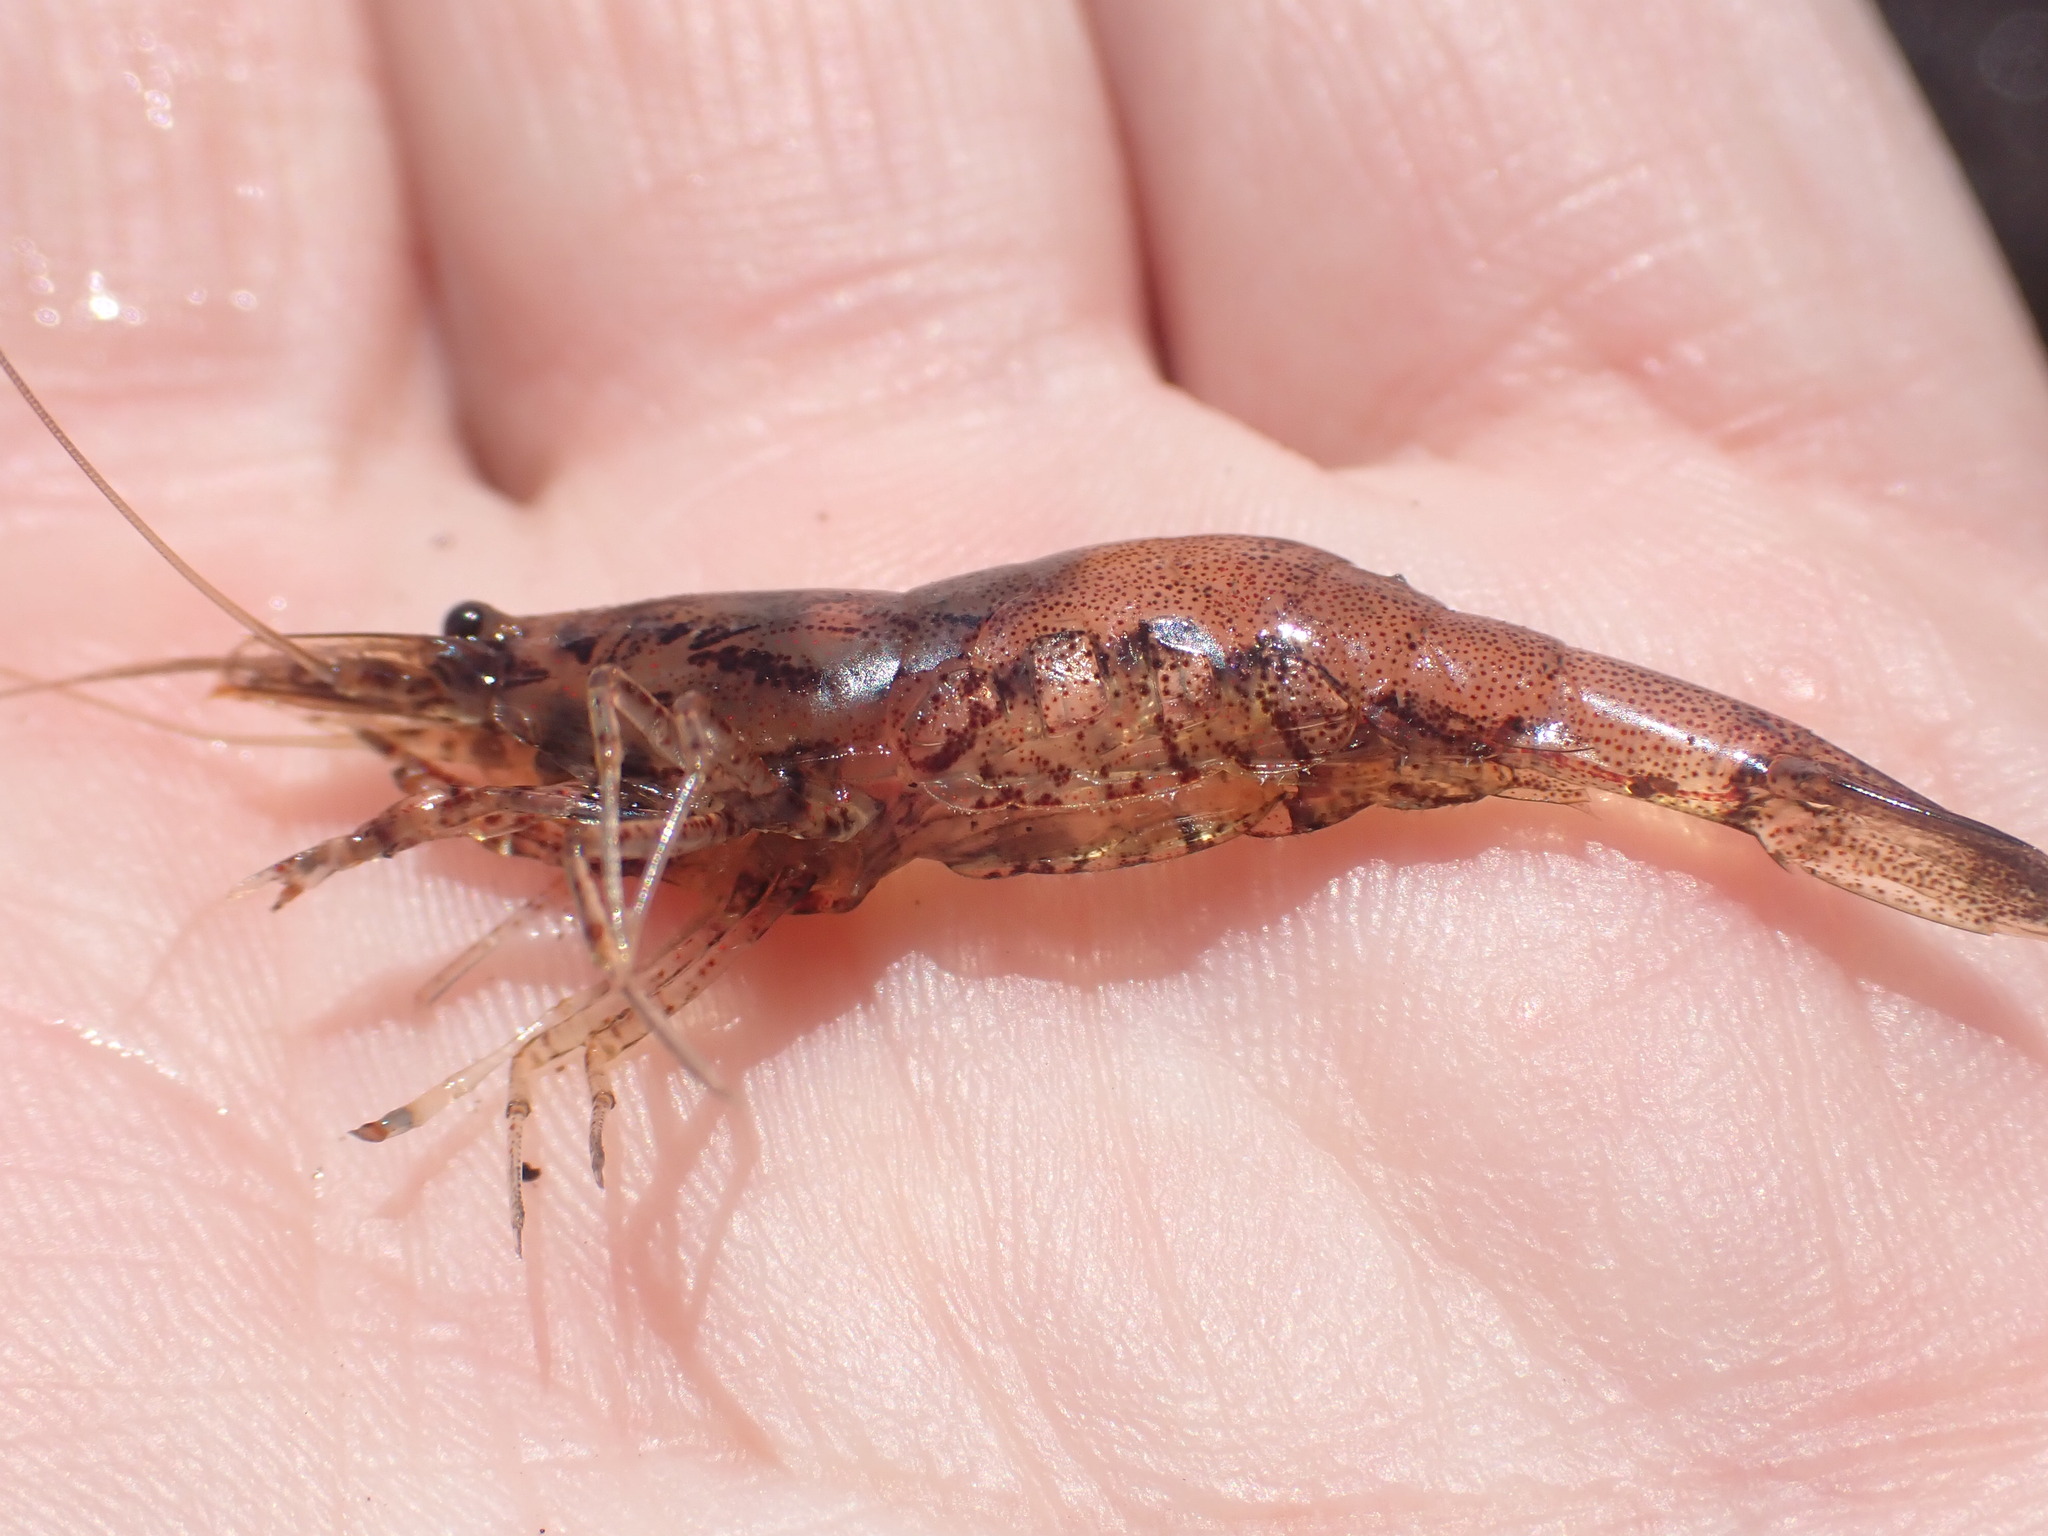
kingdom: Animalia
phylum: Arthropoda
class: Malacostraca
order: Decapoda
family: Atyidae
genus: Paratya
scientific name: Paratya curvirostris
